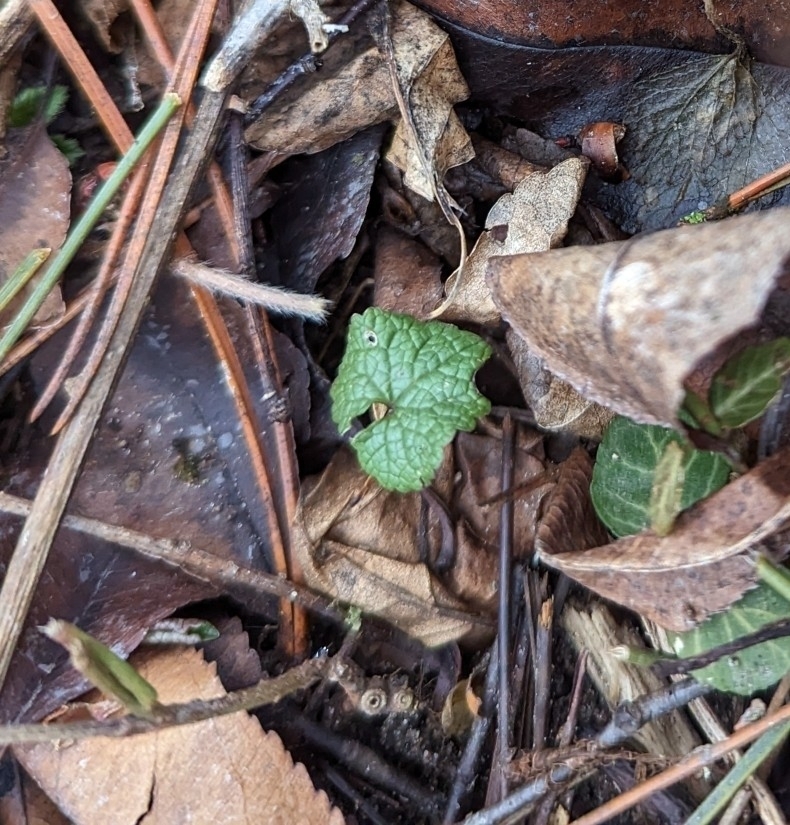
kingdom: Plantae
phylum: Tracheophyta
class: Magnoliopsida
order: Brassicales
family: Brassicaceae
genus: Alliaria
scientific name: Alliaria petiolata
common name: Garlic mustard
